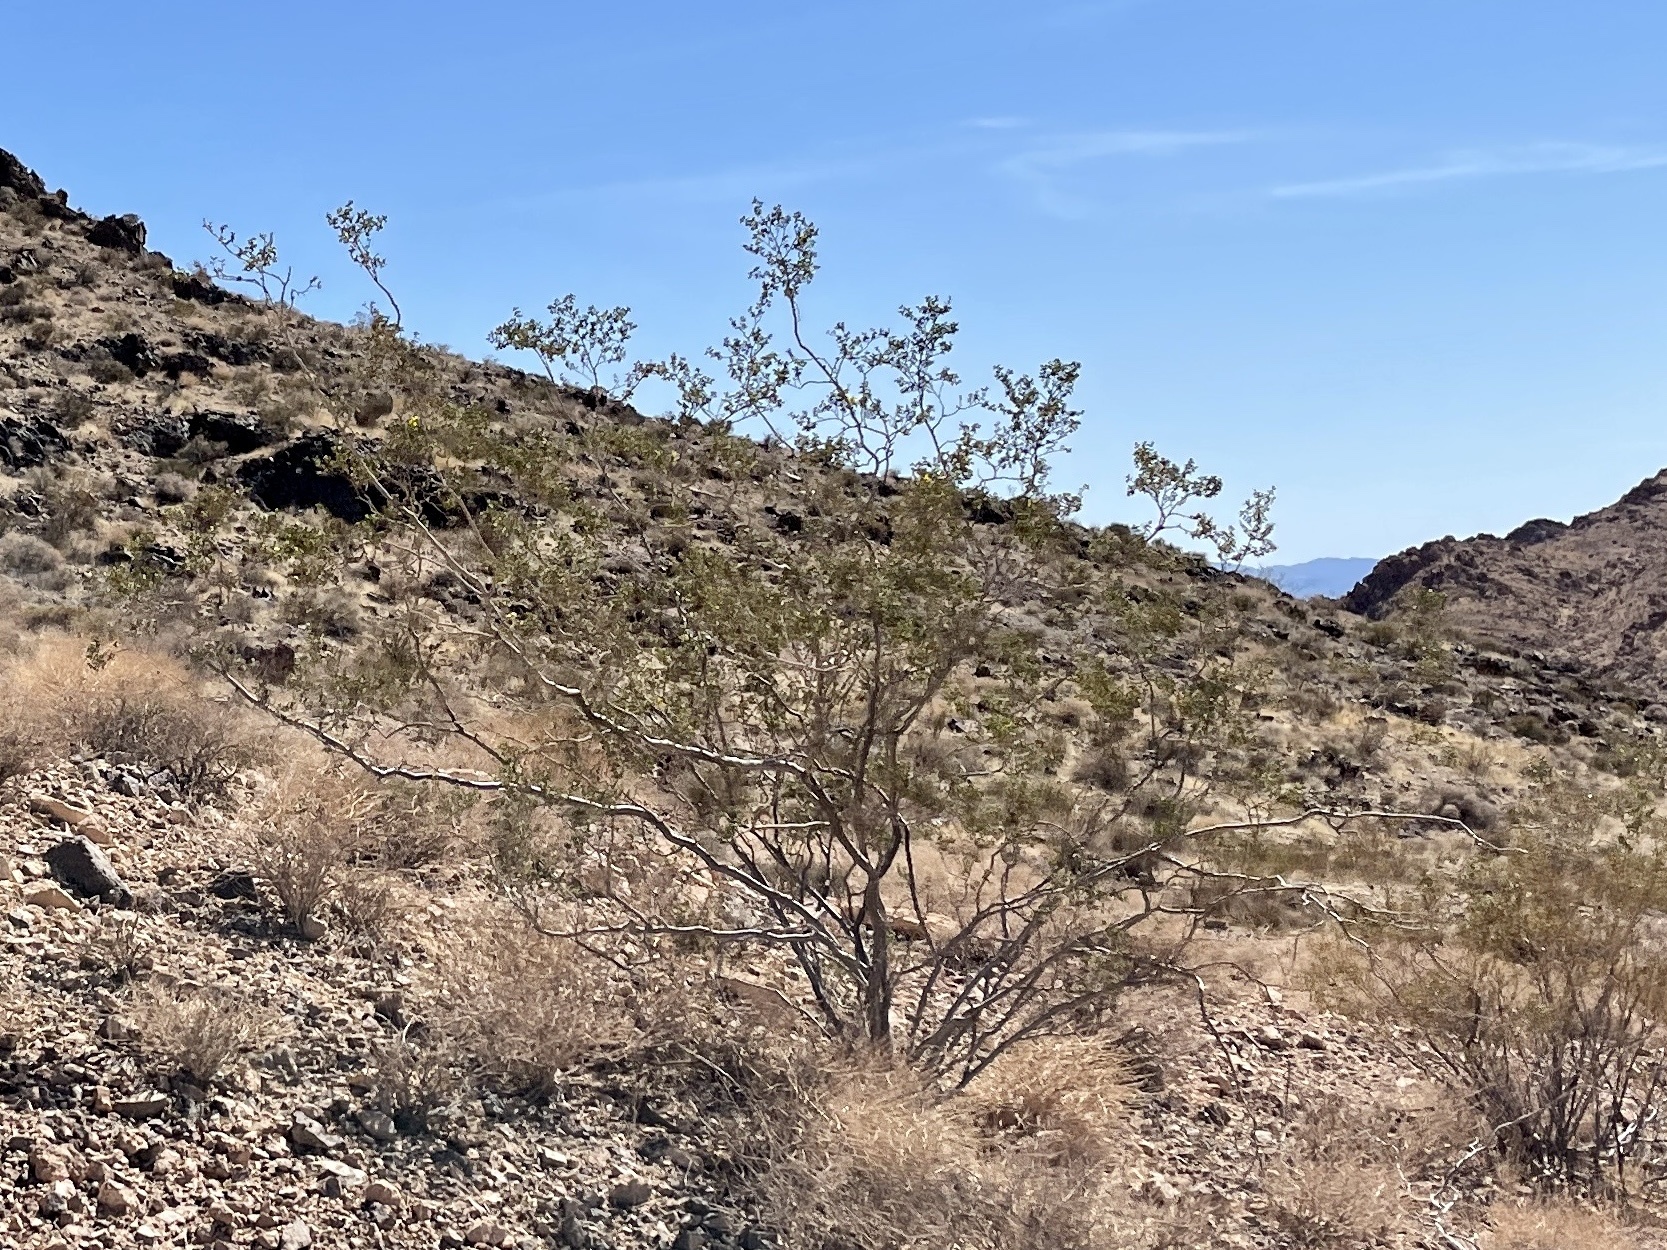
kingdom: Plantae
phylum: Tracheophyta
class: Magnoliopsida
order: Zygophyllales
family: Zygophyllaceae
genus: Larrea
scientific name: Larrea tridentata
